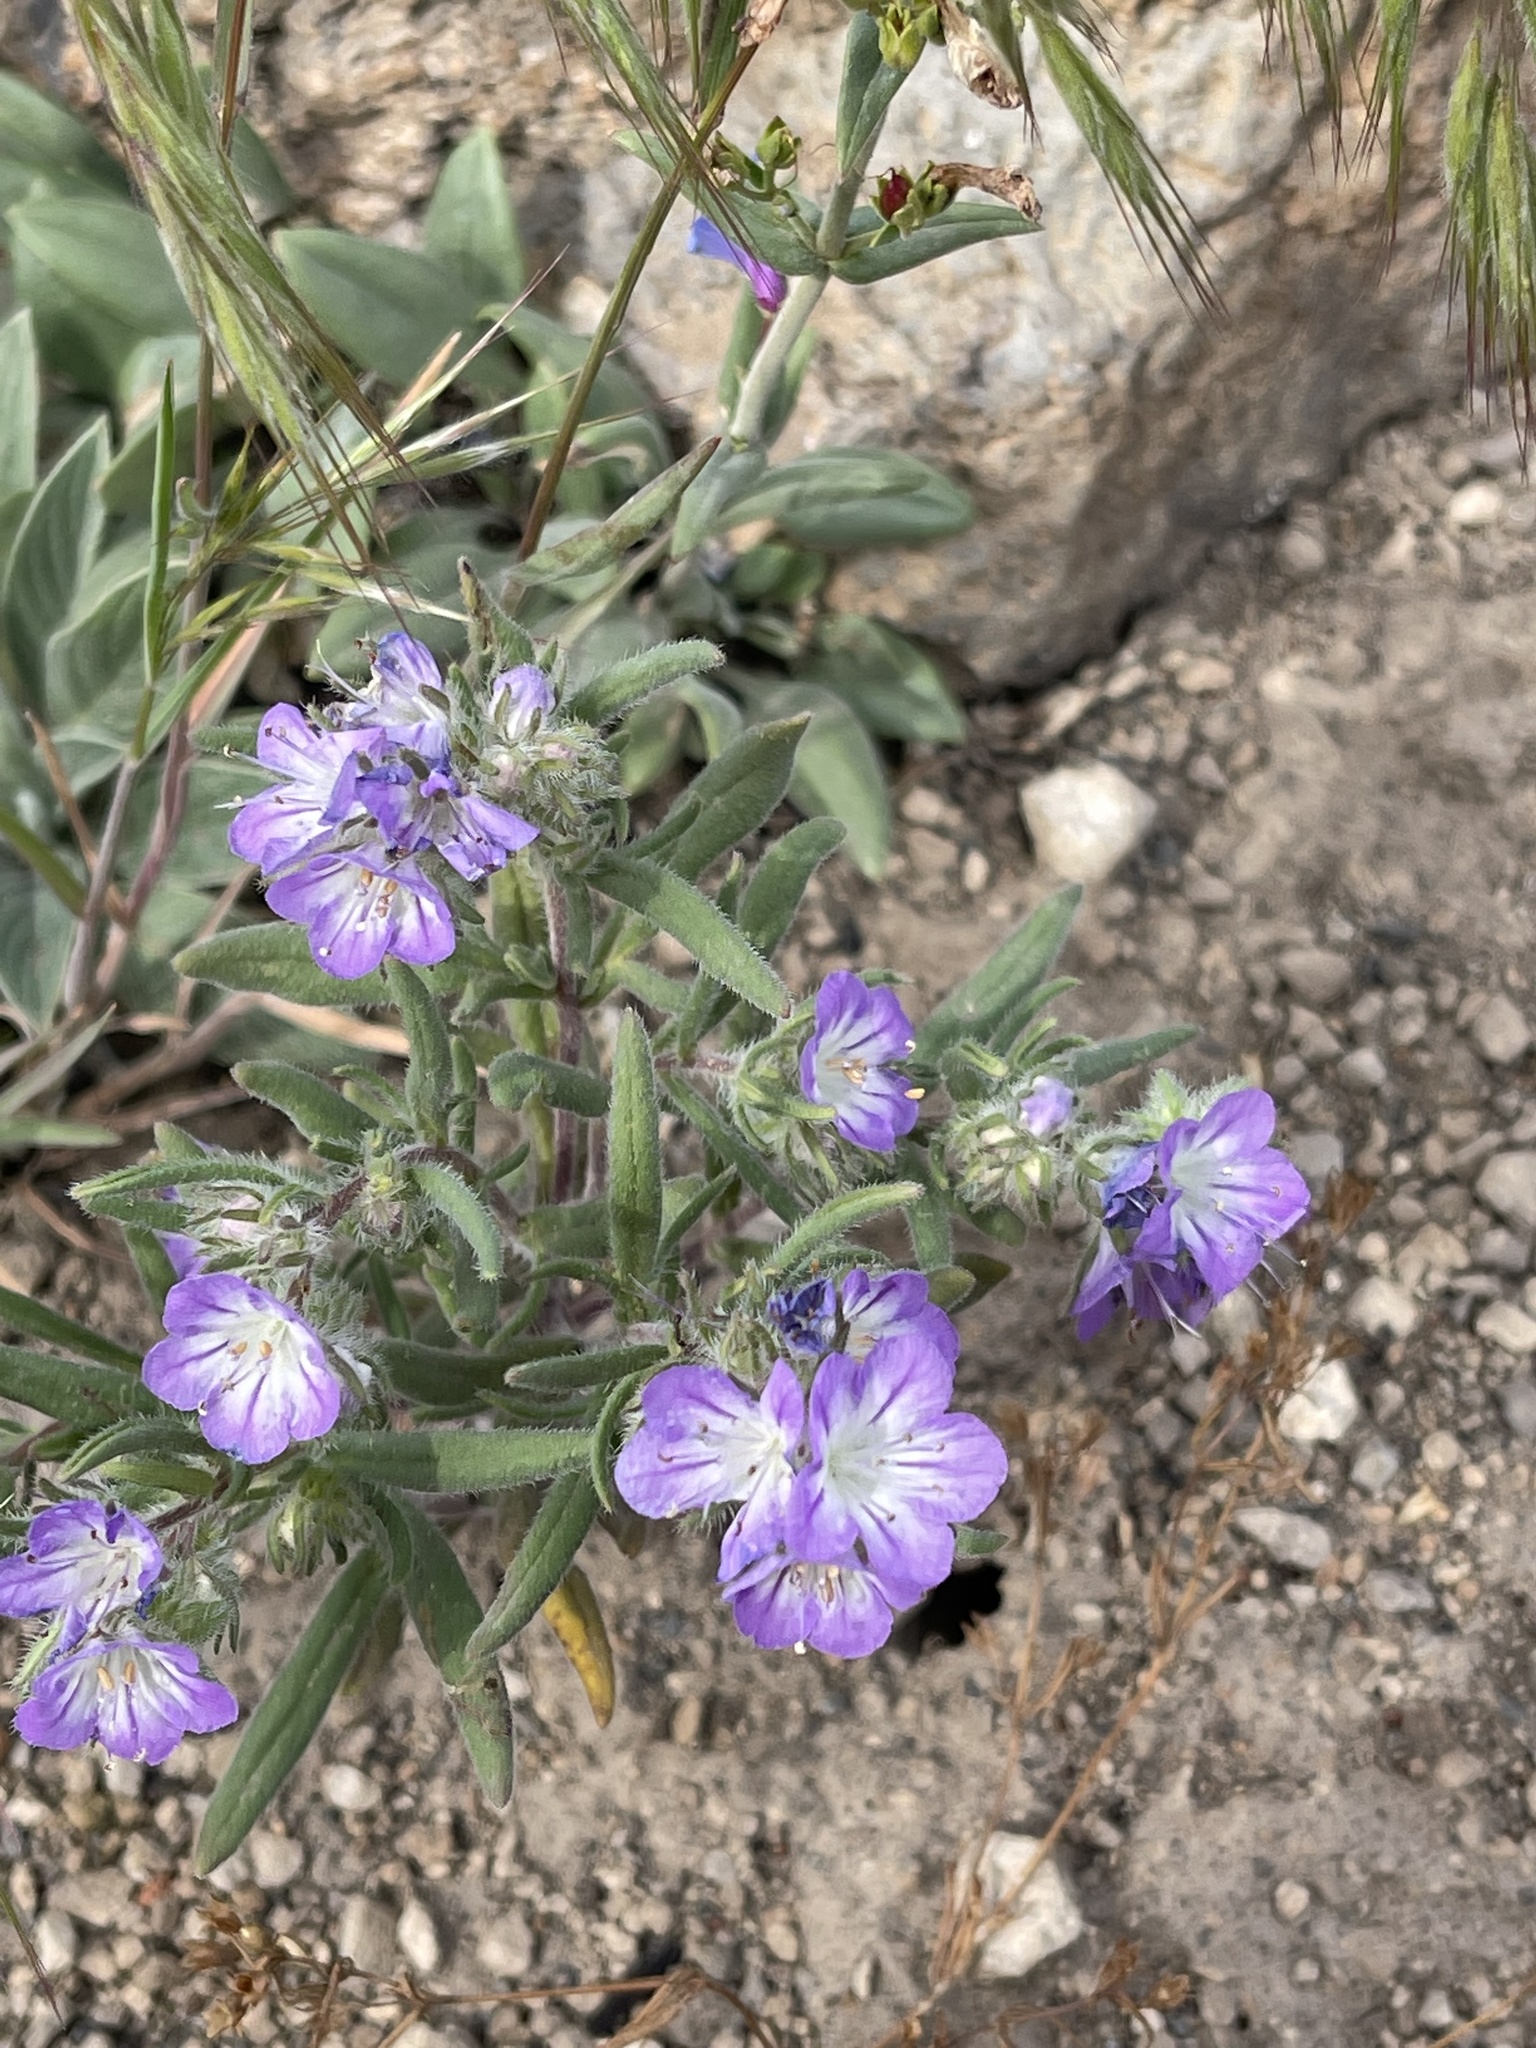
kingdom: Plantae
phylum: Tracheophyta
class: Magnoliopsida
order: Boraginales
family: Hydrophyllaceae
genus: Phacelia
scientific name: Phacelia linearis
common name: Linear-leaved phacelia
